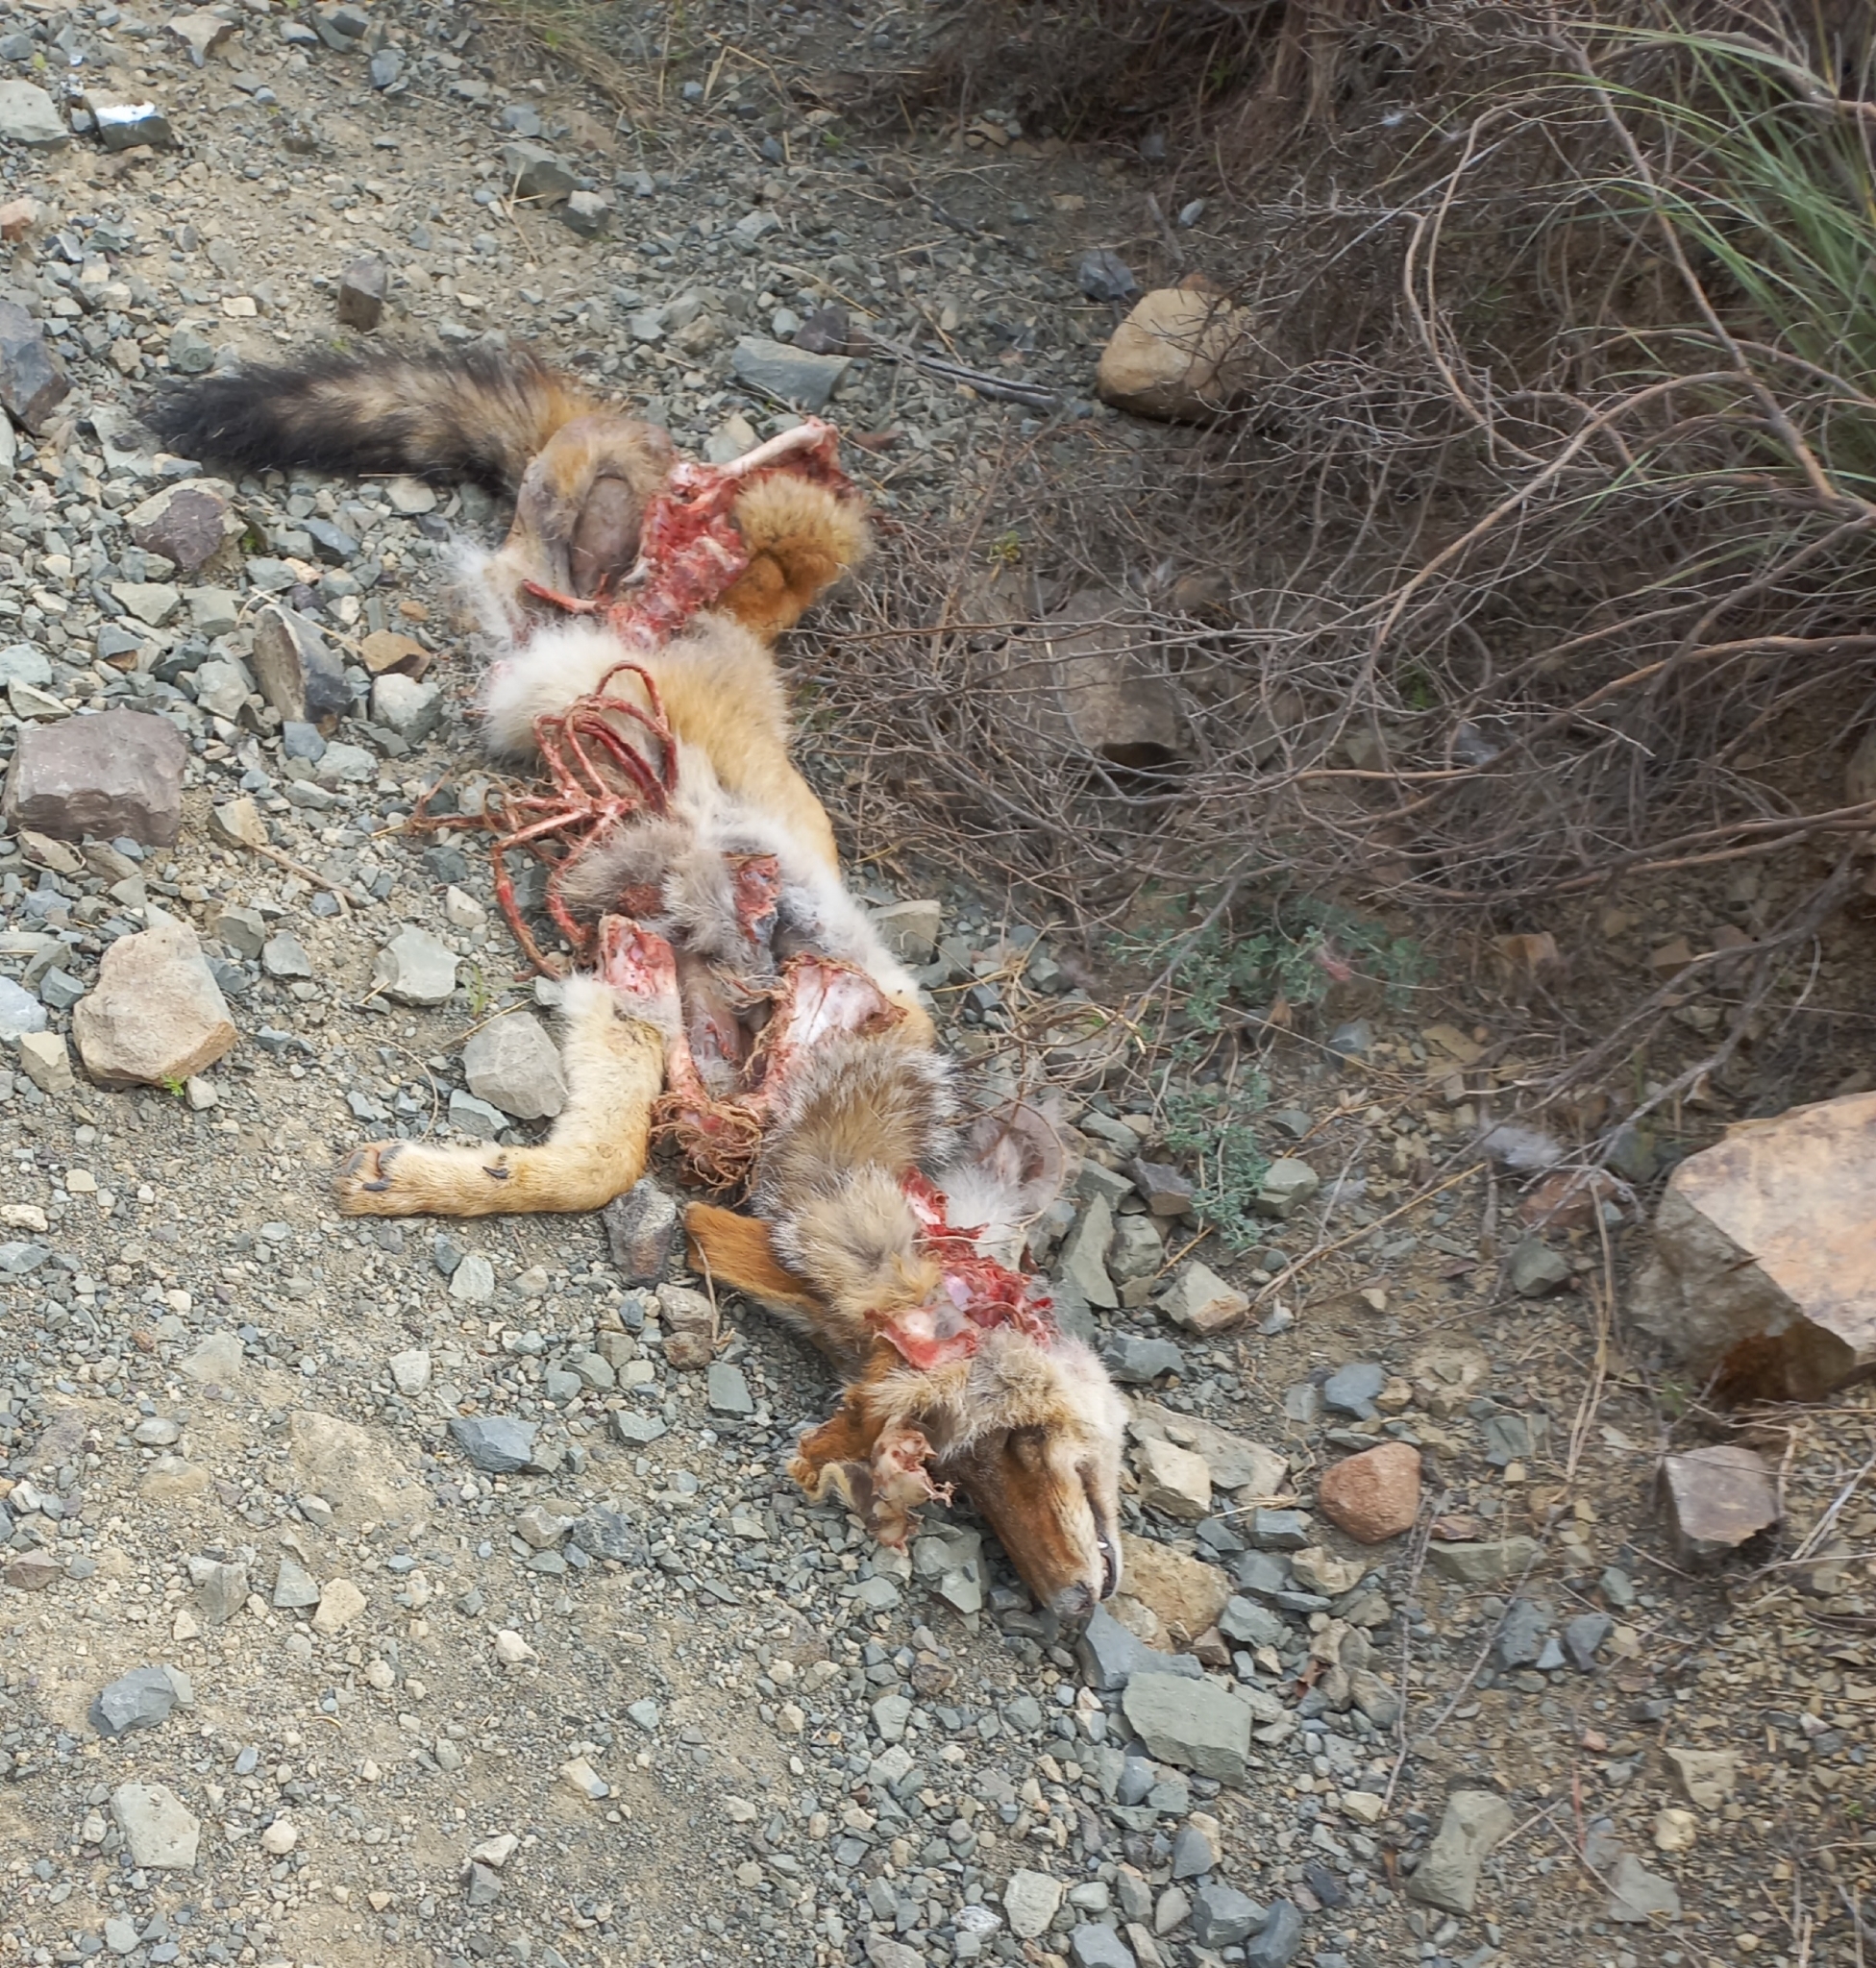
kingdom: Animalia
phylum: Chordata
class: Mammalia
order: Carnivora
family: Canidae
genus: Lupulella
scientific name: Lupulella
